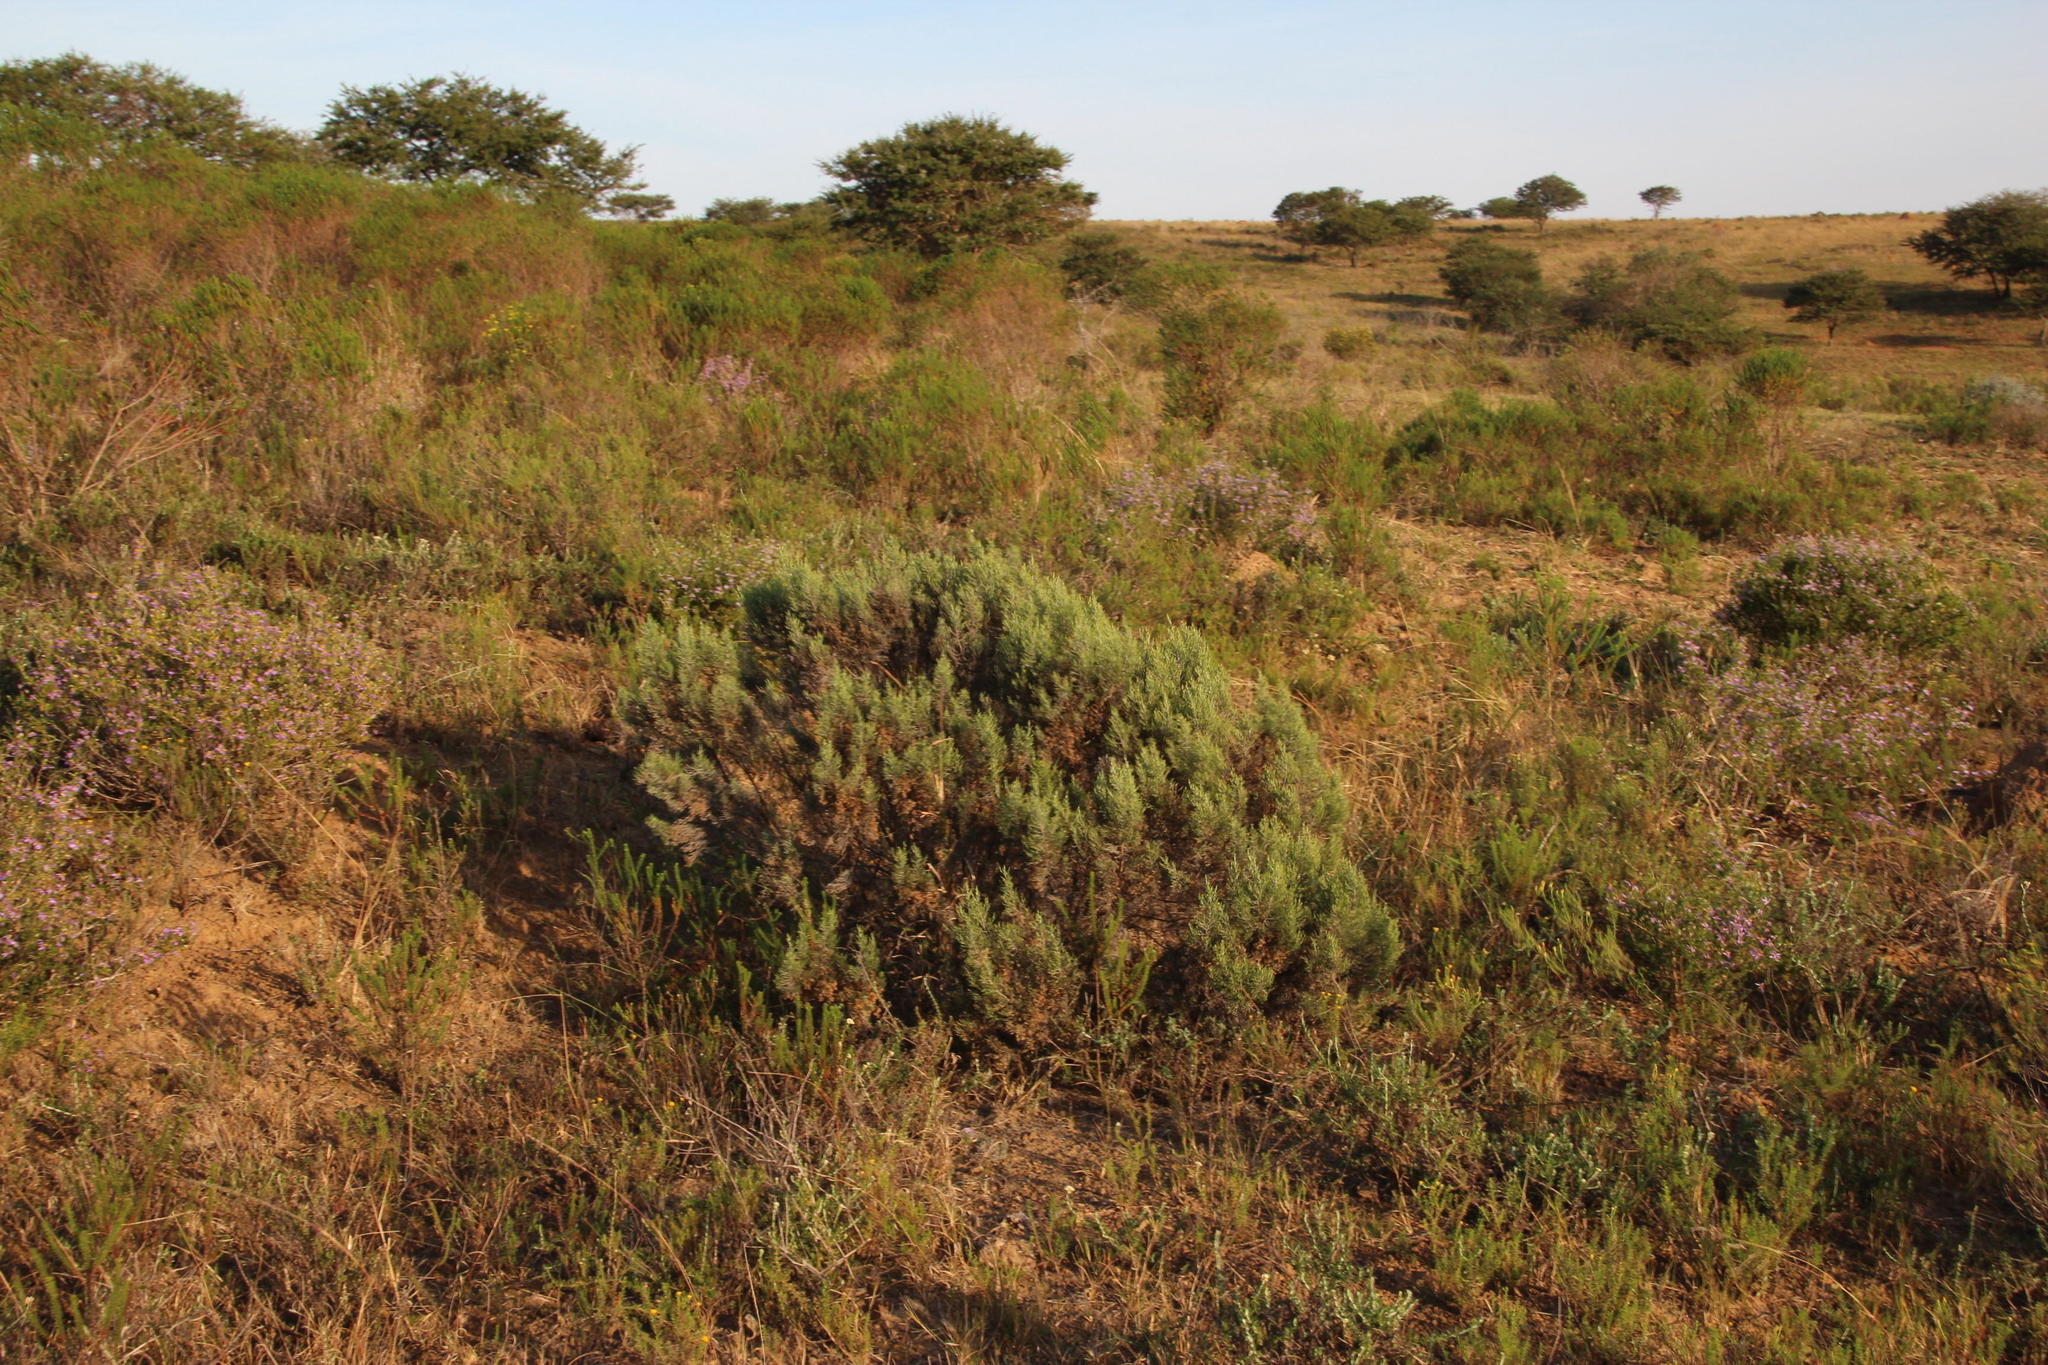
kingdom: Plantae
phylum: Tracheophyta
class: Magnoliopsida
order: Asterales
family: Asteraceae
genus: Dicerothamnus
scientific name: Dicerothamnus rhinocerotis
